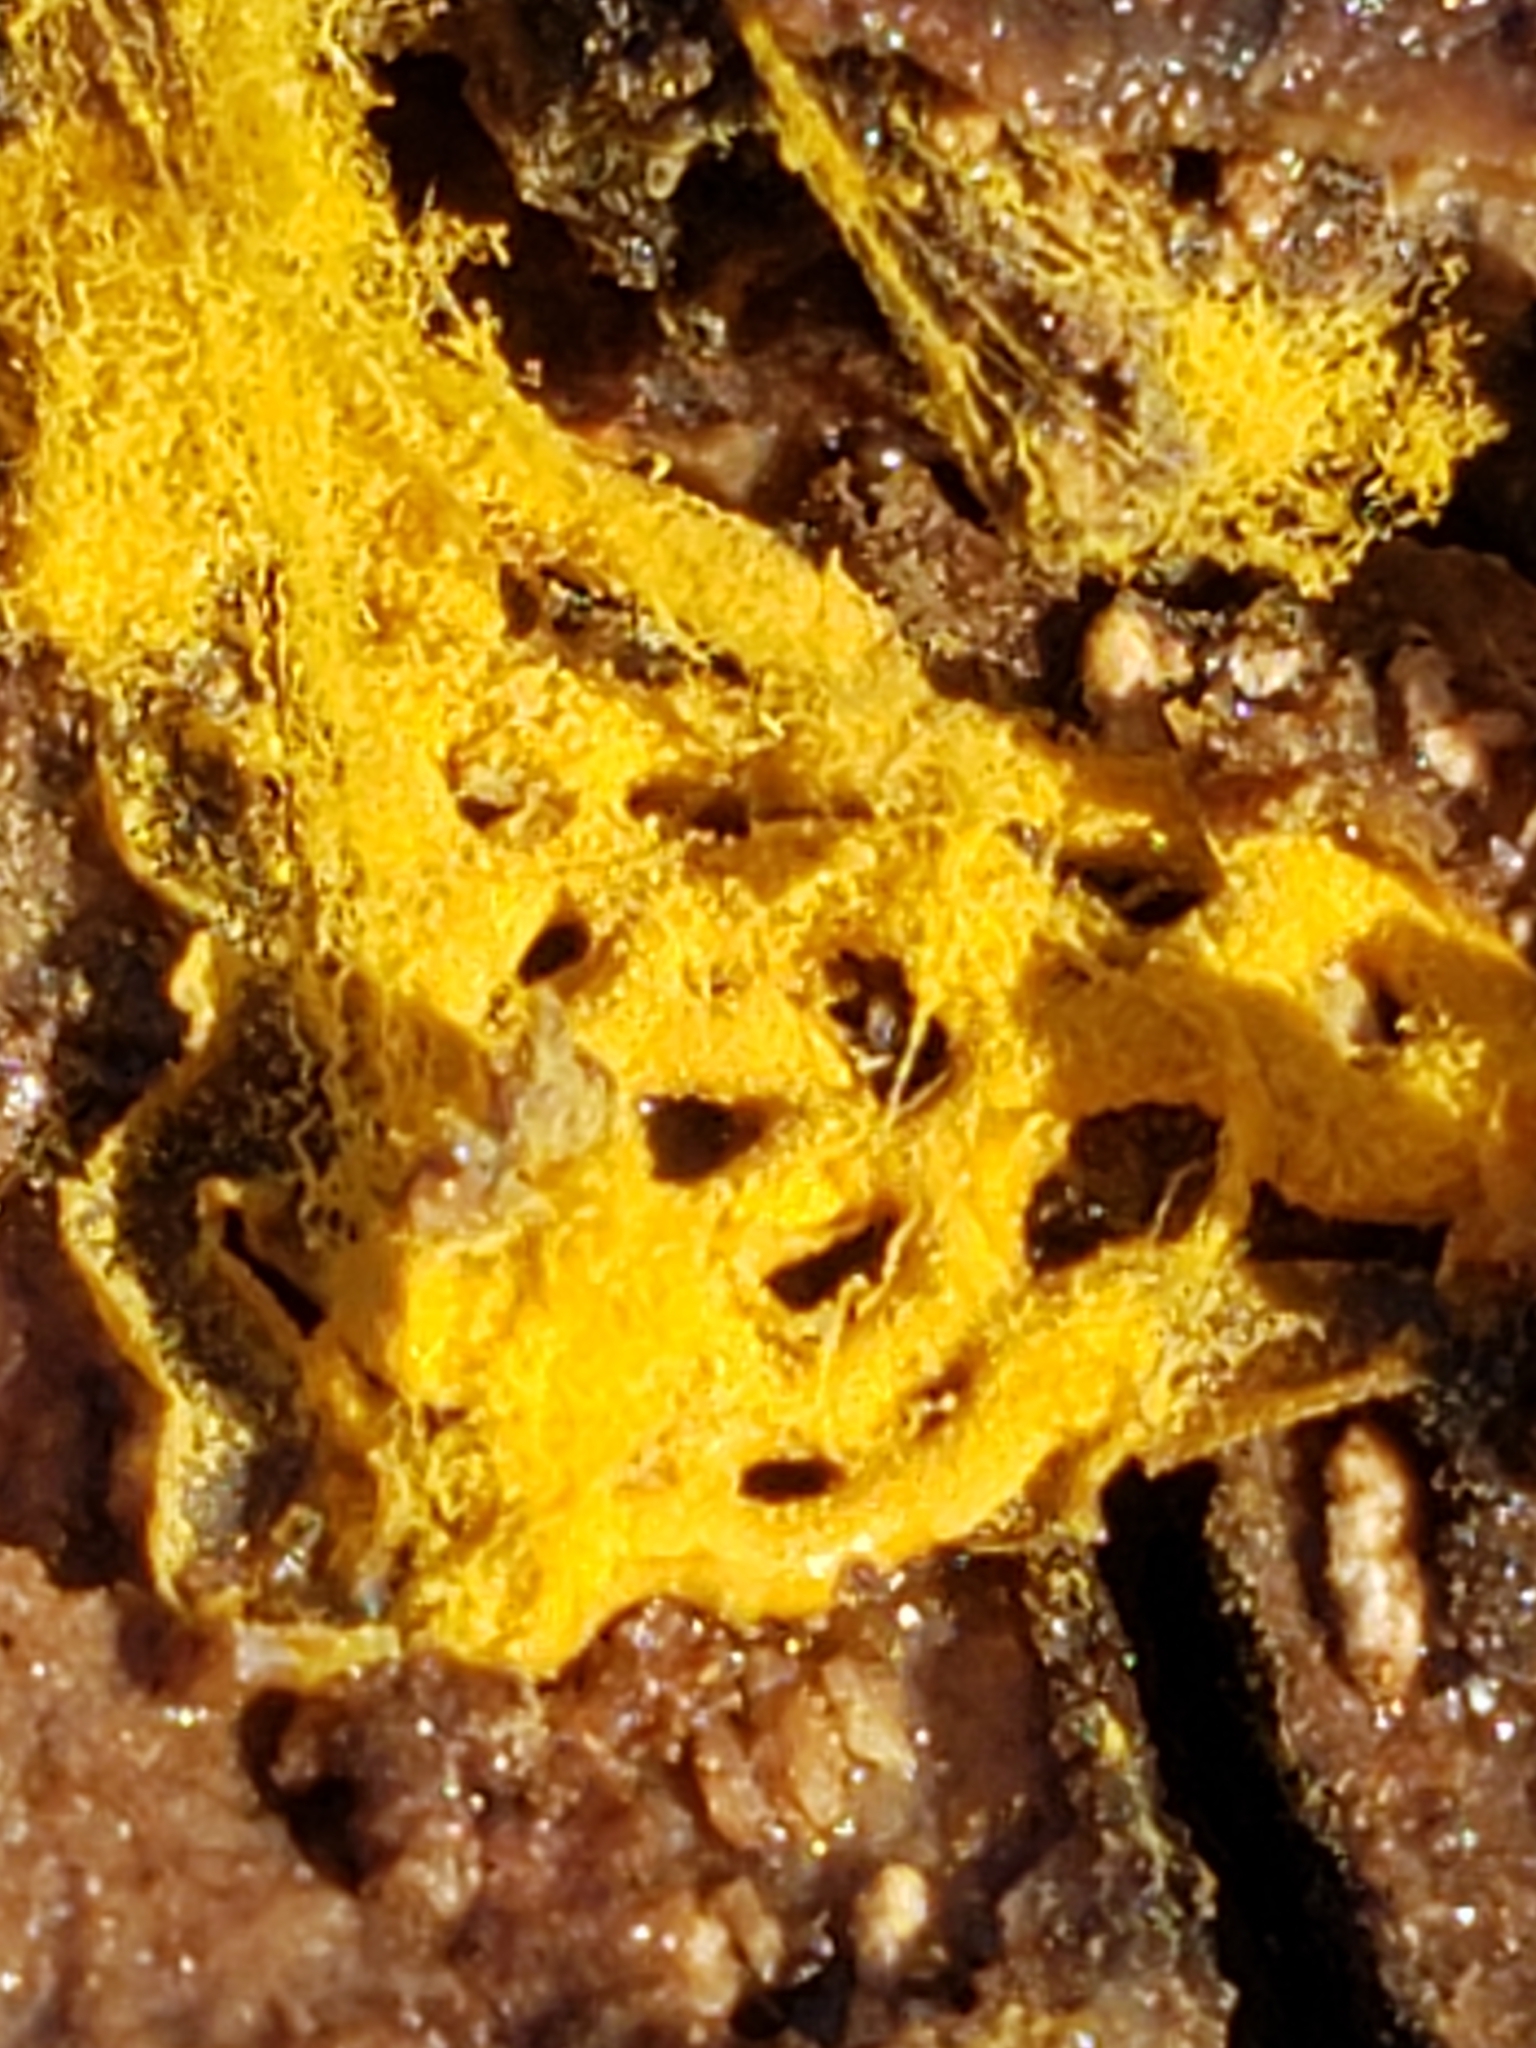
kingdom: Protozoa
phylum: Mycetozoa
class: Myxomycetes
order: Trichiales
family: Arcyriaceae
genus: Hemitrichia
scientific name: Hemitrichia serpula
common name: Pretzel slime mold
